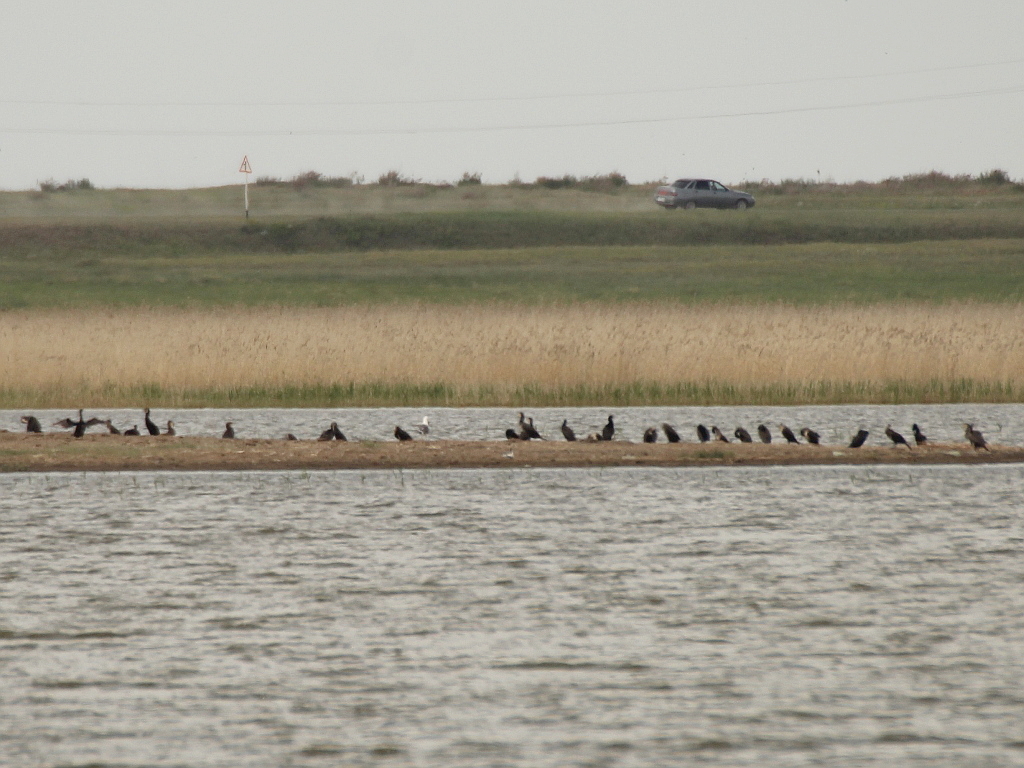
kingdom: Animalia
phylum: Chordata
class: Aves
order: Suliformes
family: Phalacrocoracidae
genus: Phalacrocorax
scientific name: Phalacrocorax carbo
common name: Great cormorant
